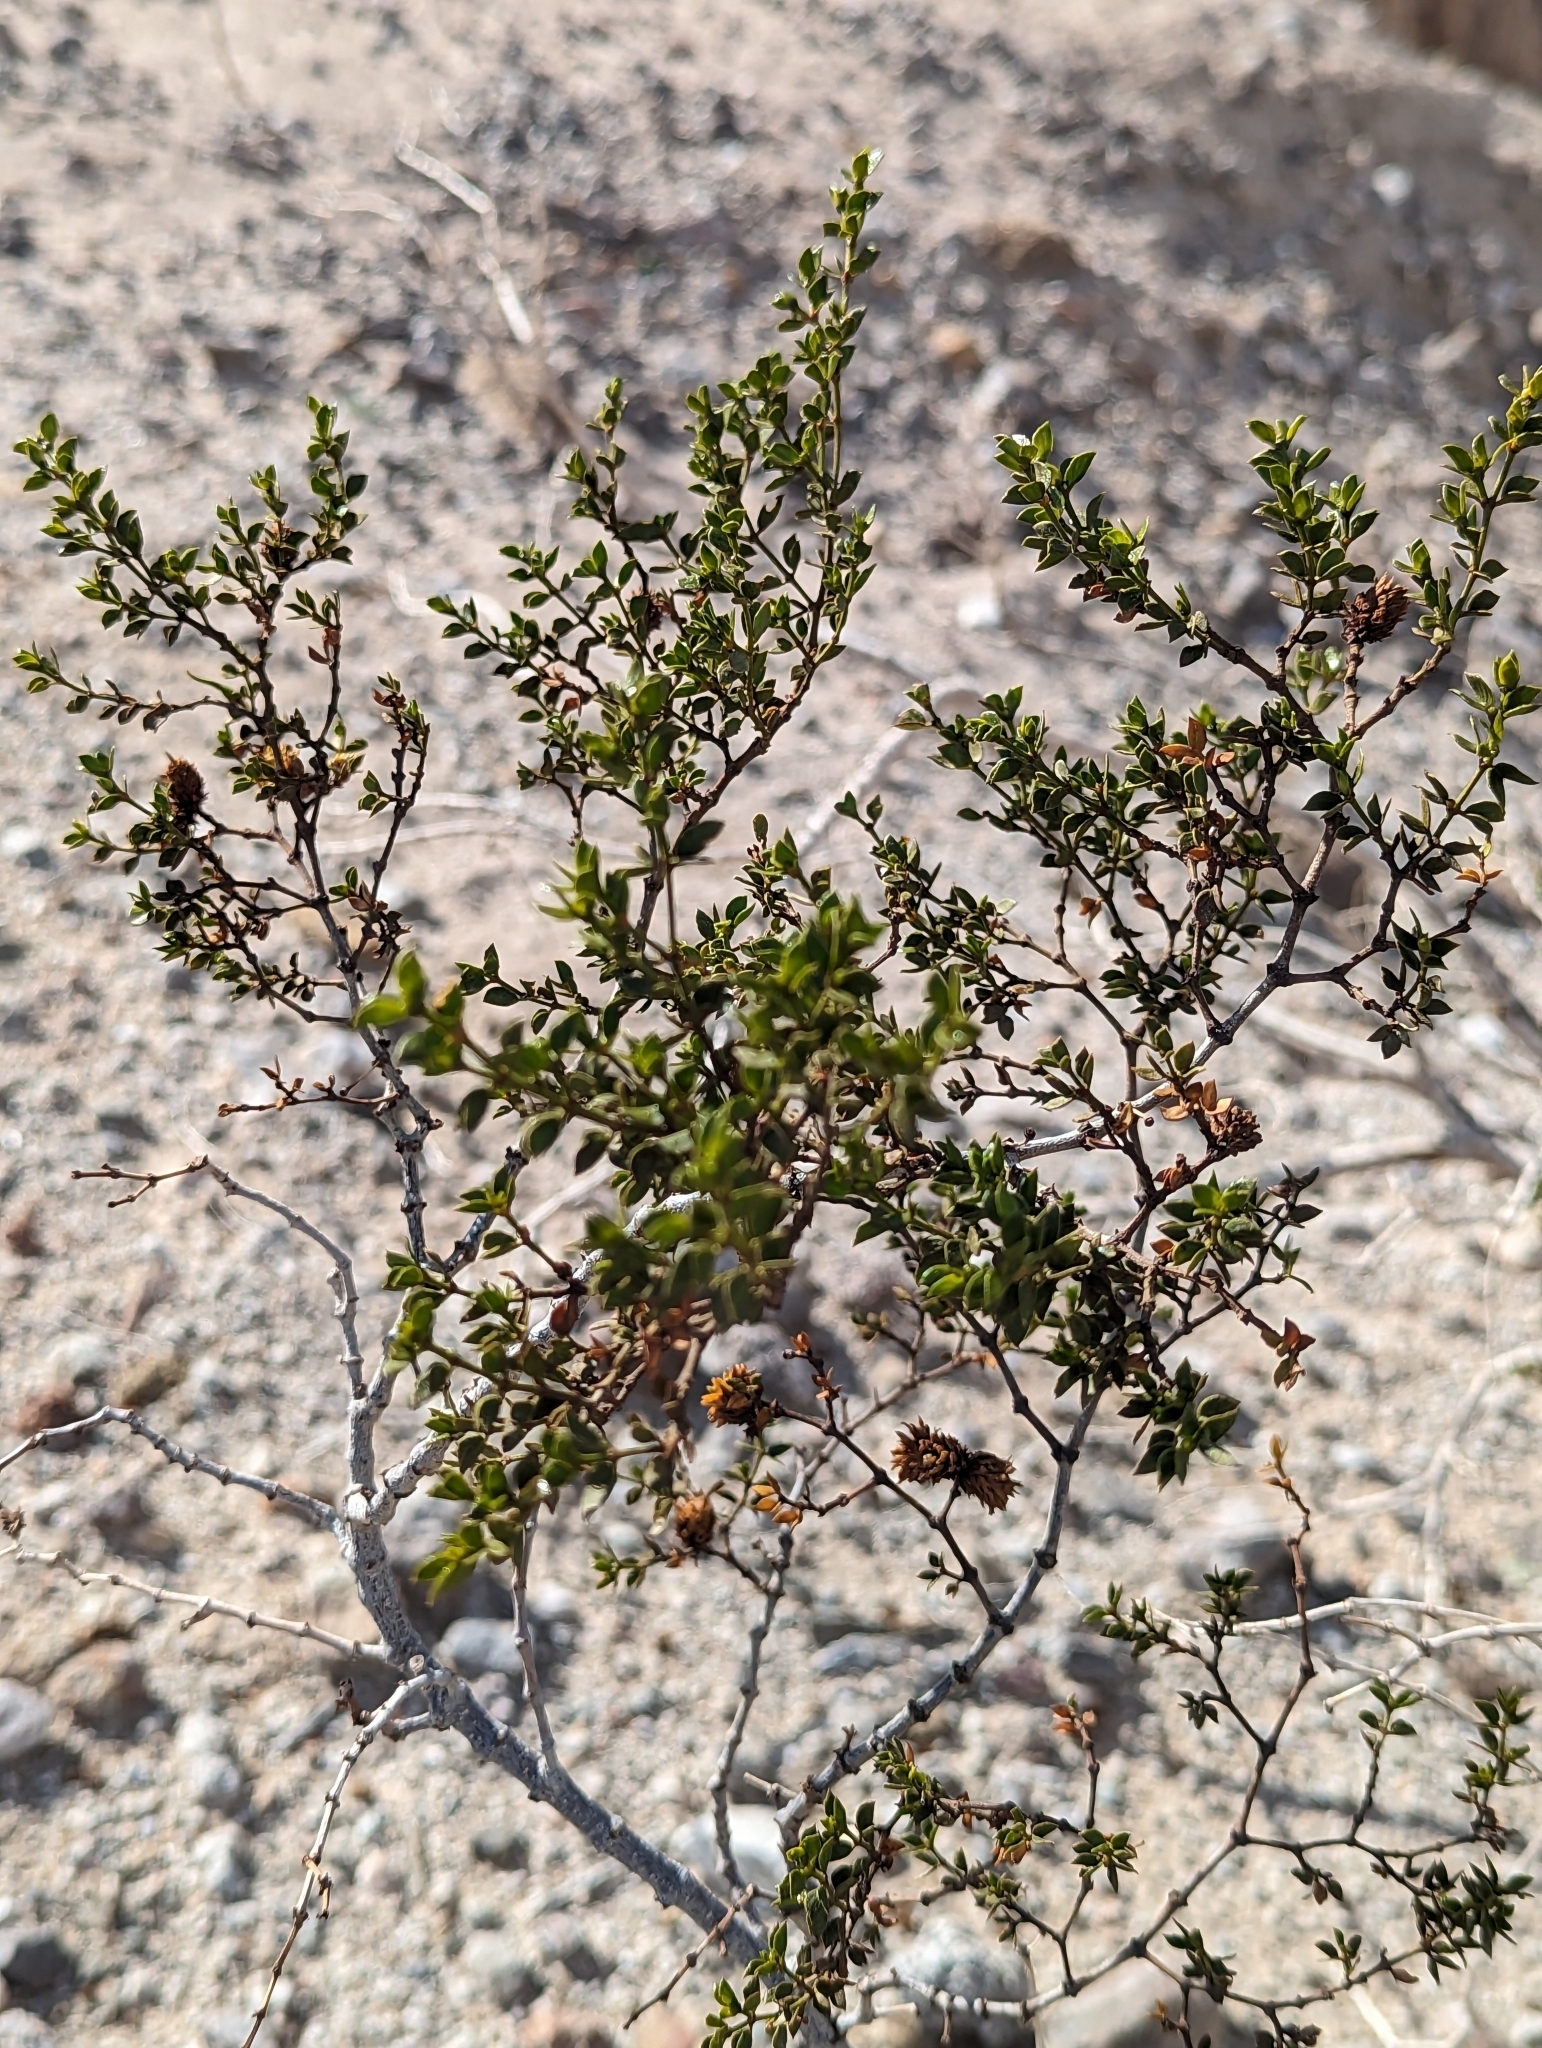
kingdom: Plantae
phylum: Tracheophyta
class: Magnoliopsida
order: Zygophyllales
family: Zygophyllaceae
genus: Larrea
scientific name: Larrea tridentata
